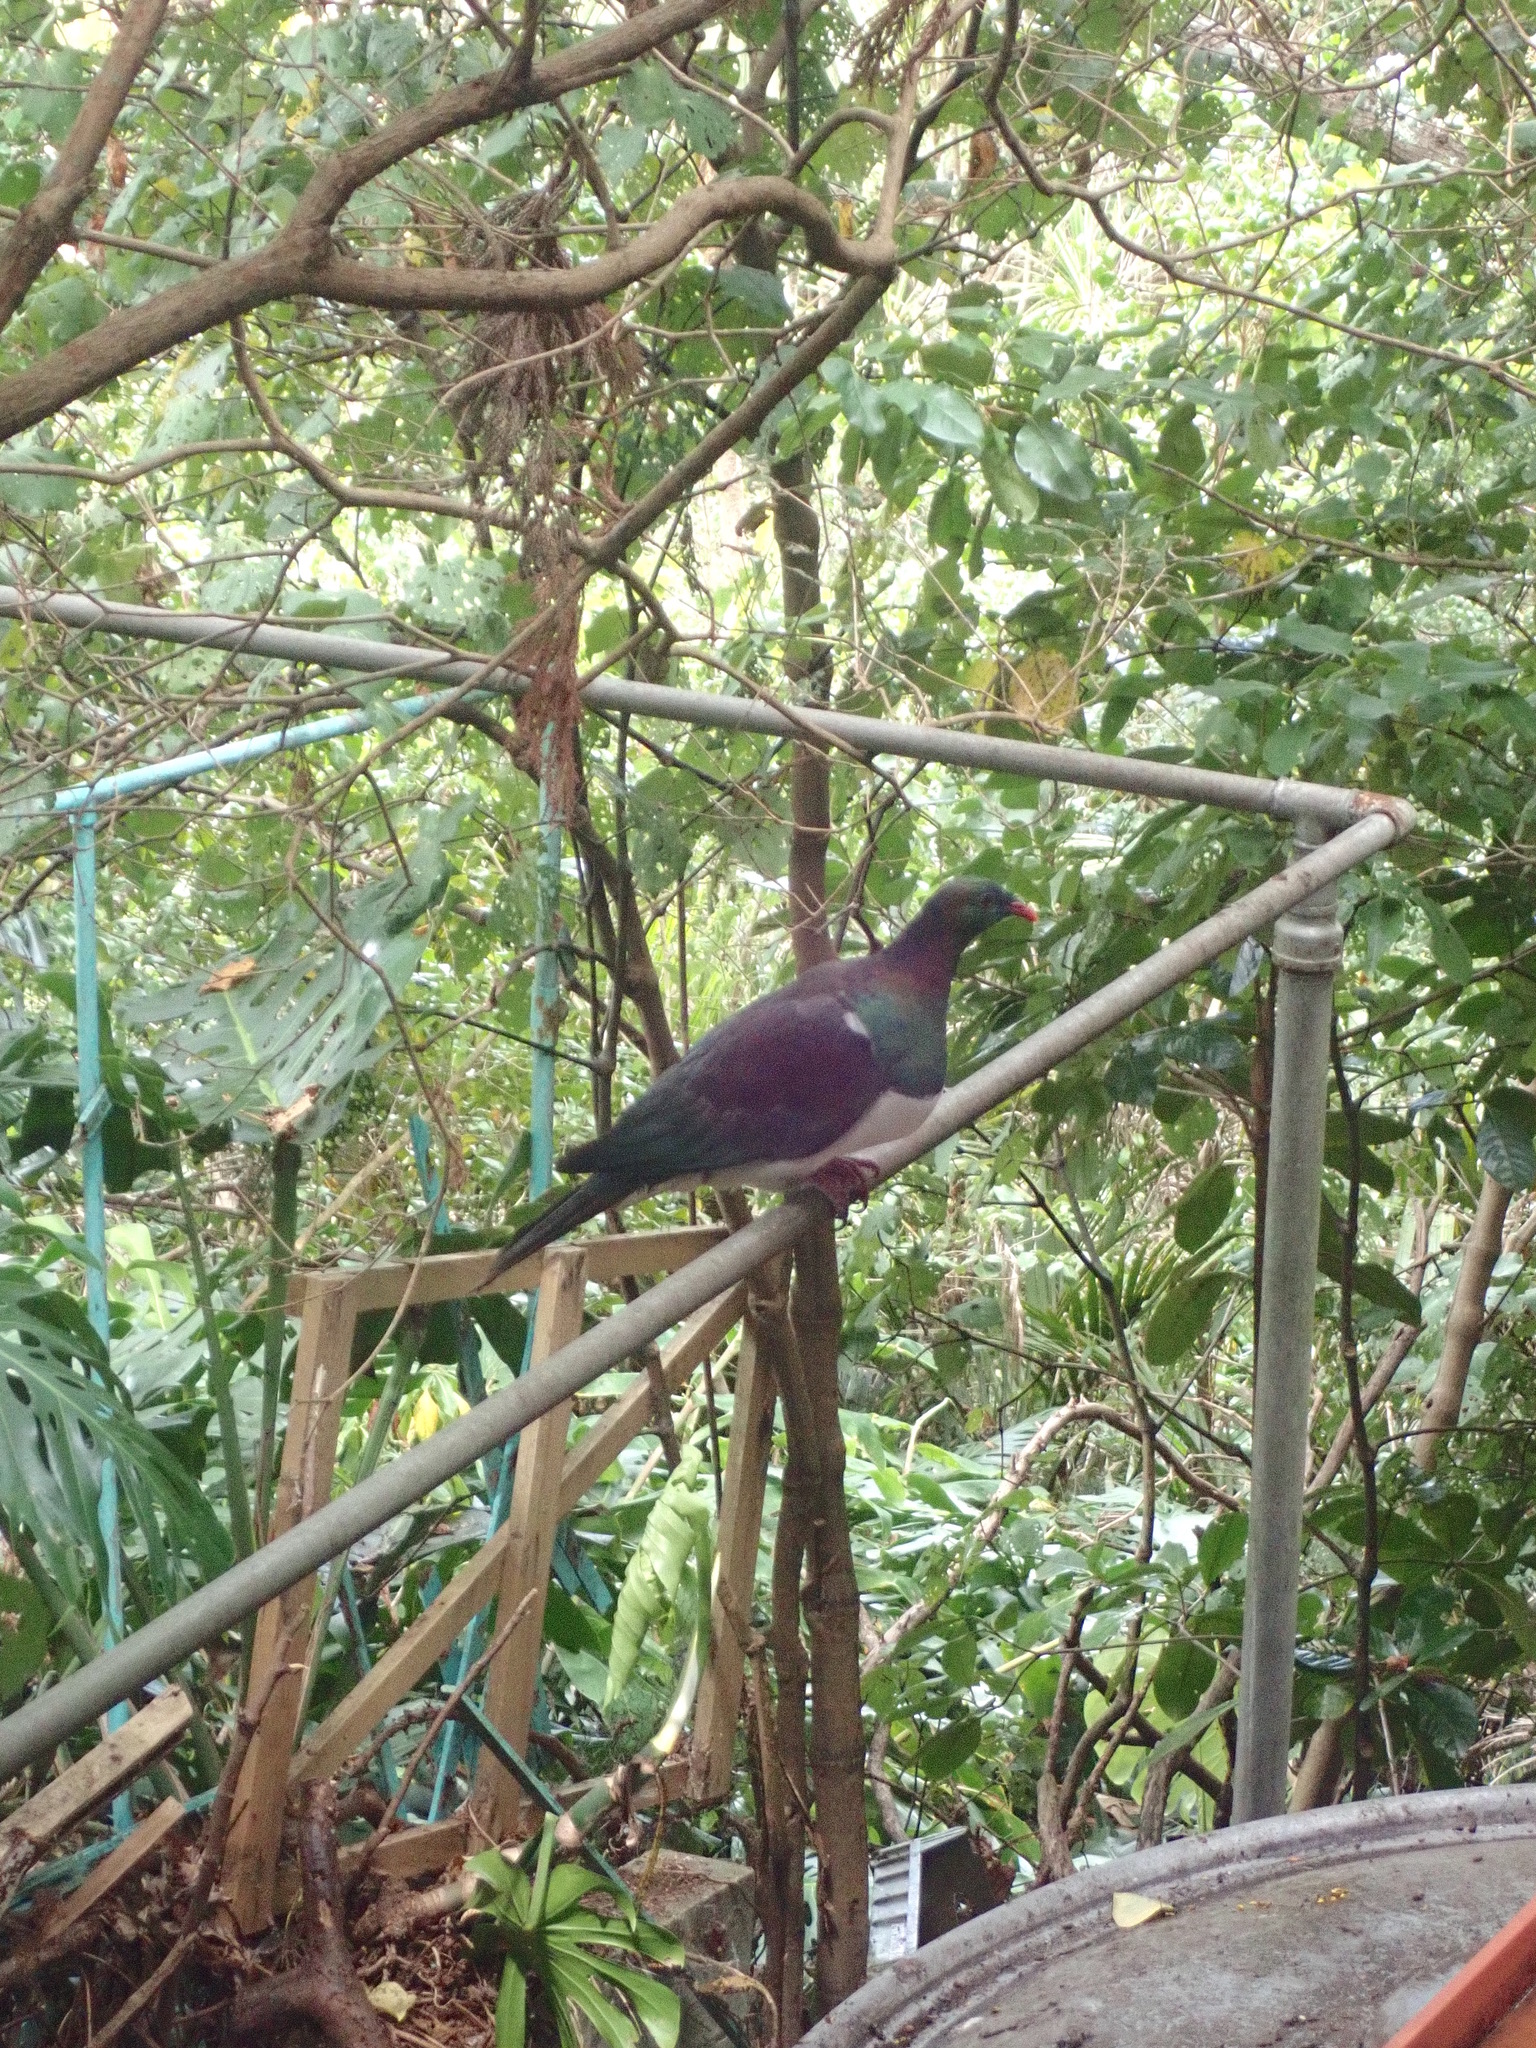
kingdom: Animalia
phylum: Chordata
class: Aves
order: Columbiformes
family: Columbidae
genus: Hemiphaga
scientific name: Hemiphaga novaeseelandiae
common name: New zealand pigeon
